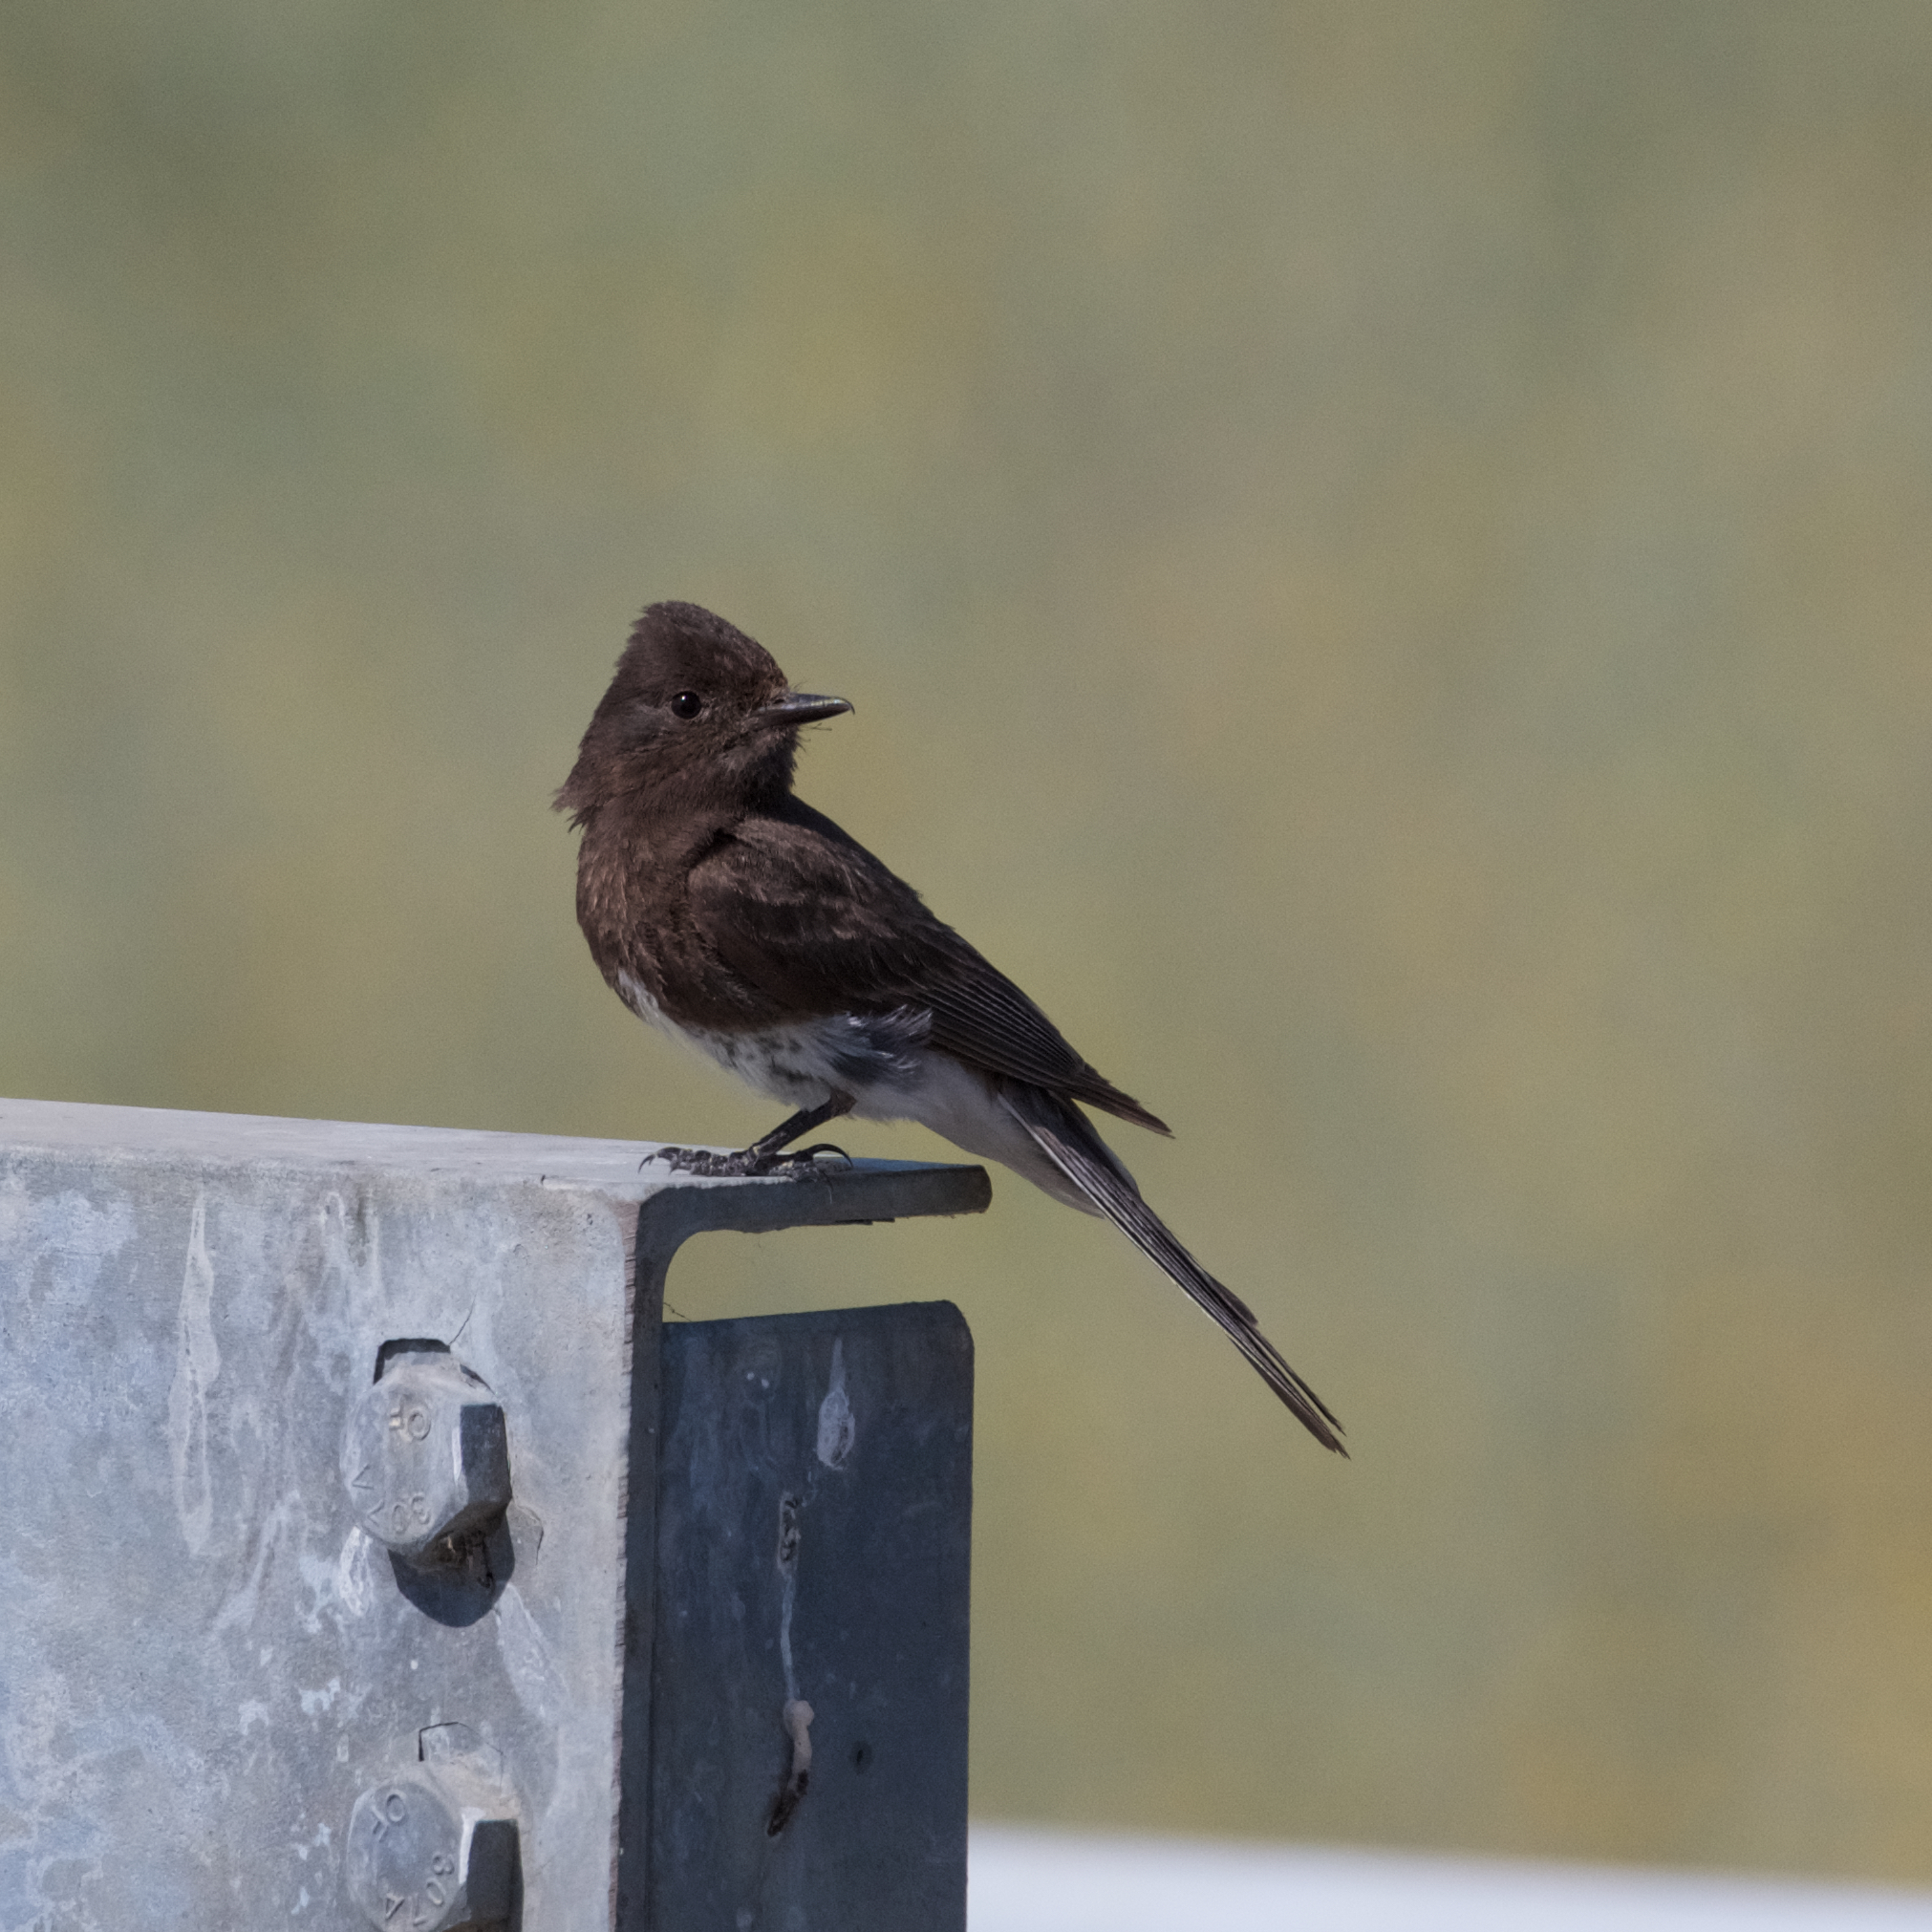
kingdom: Animalia
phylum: Chordata
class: Aves
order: Passeriformes
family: Tyrannidae
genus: Sayornis
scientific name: Sayornis nigricans
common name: Black phoebe
